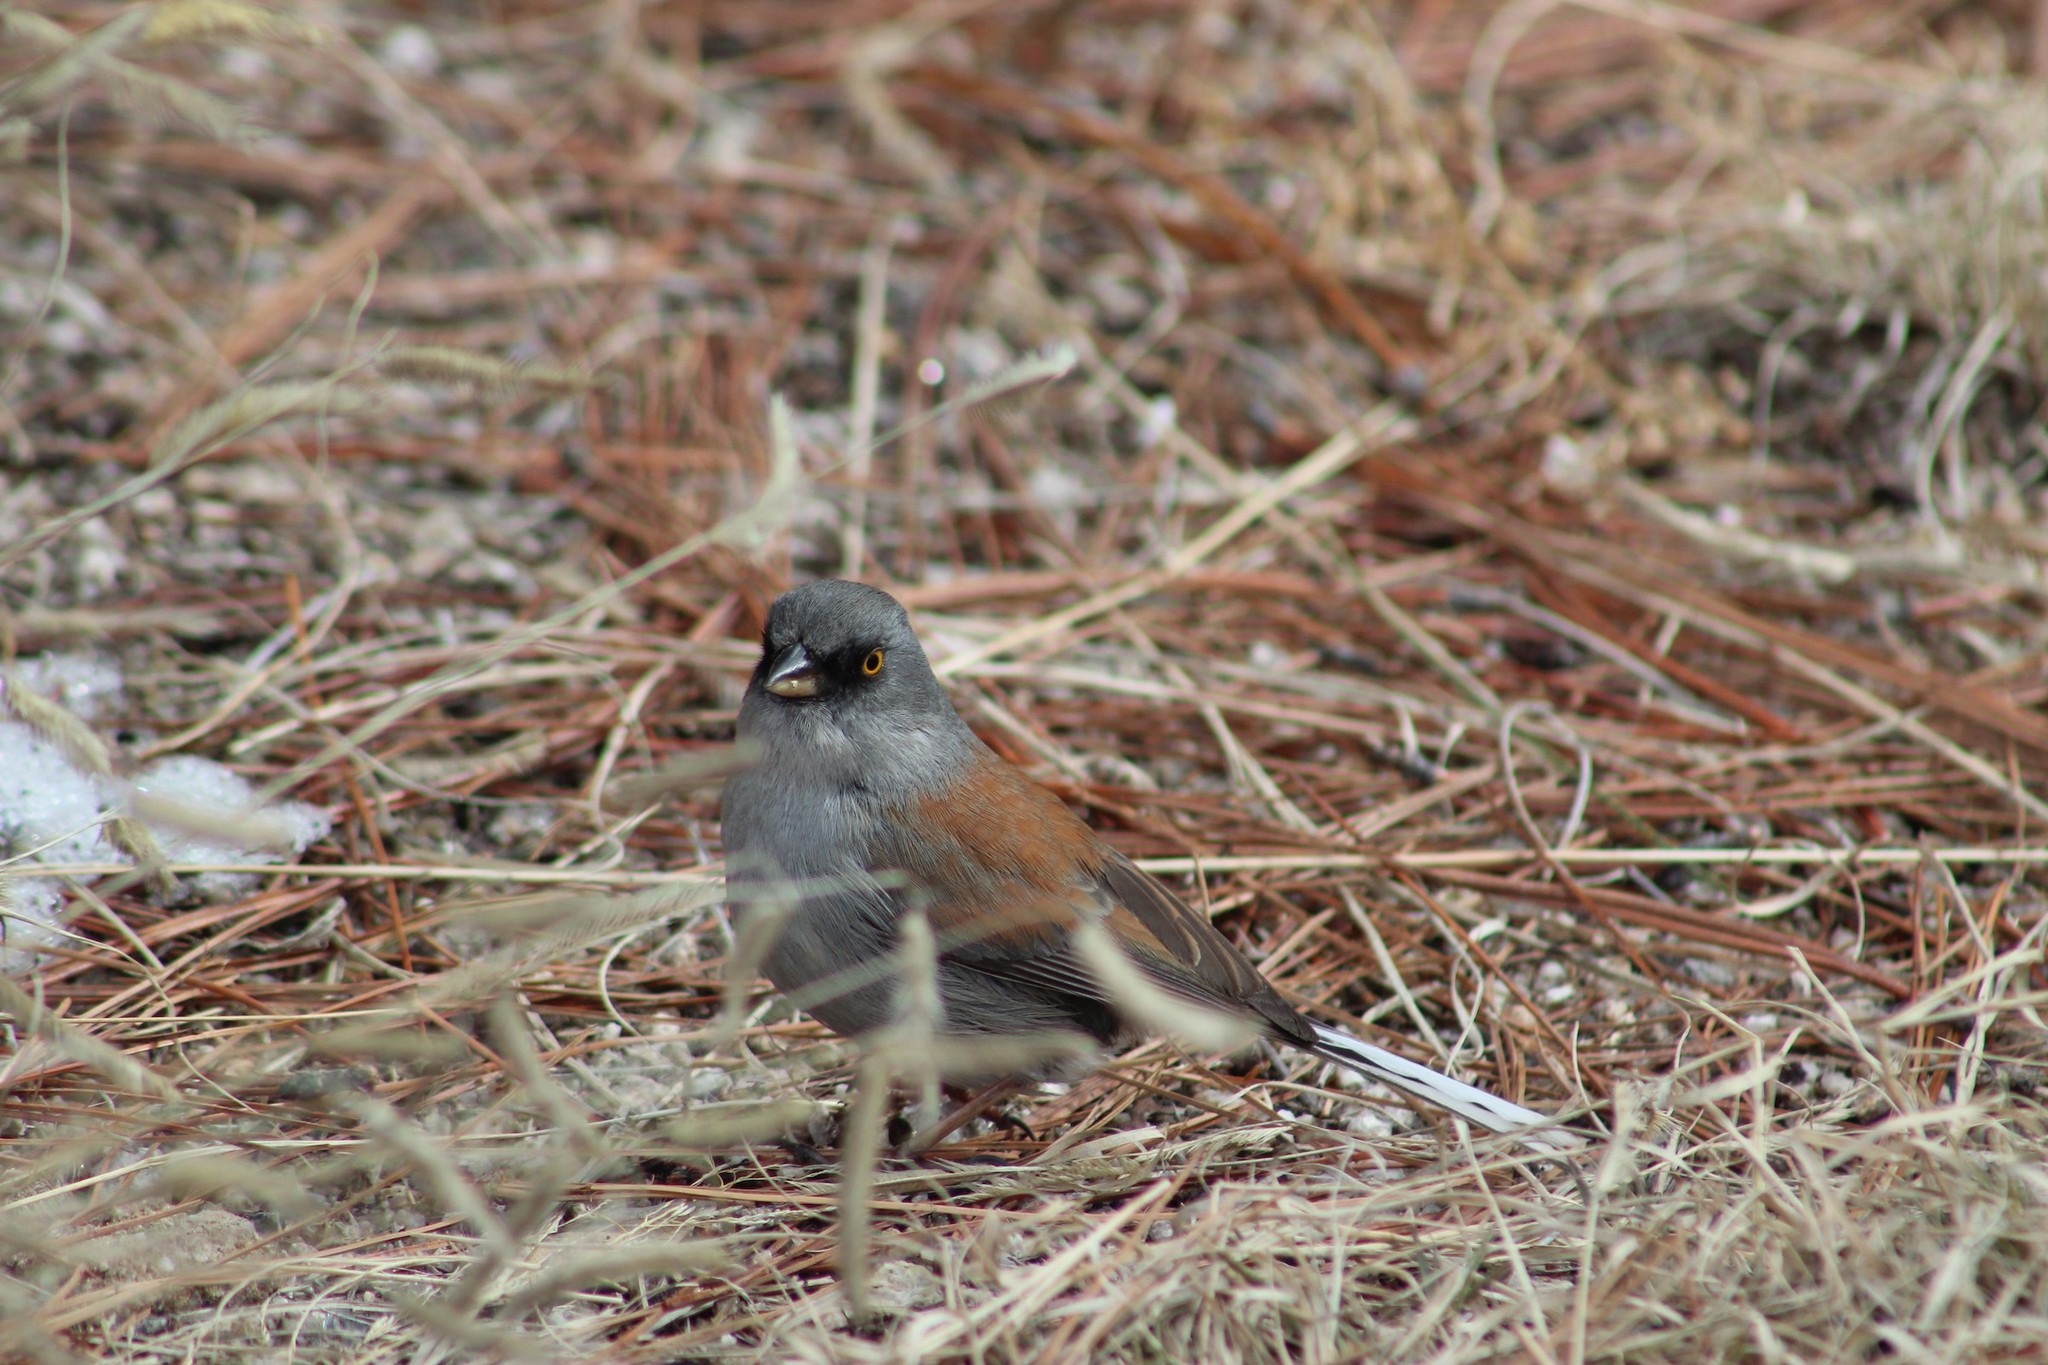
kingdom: Animalia
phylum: Chordata
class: Aves
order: Passeriformes
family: Passerellidae
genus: Junco
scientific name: Junco phaeonotus
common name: Yellow-eyed junco
